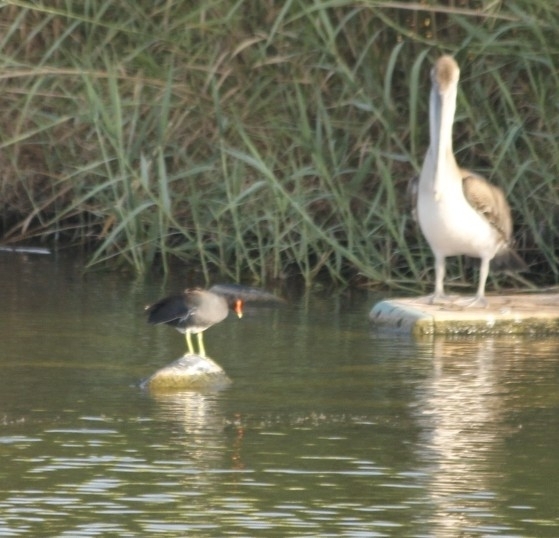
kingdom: Animalia
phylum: Chordata
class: Aves
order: Gruiformes
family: Rallidae
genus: Gallinula
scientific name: Gallinula chloropus
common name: Common moorhen
